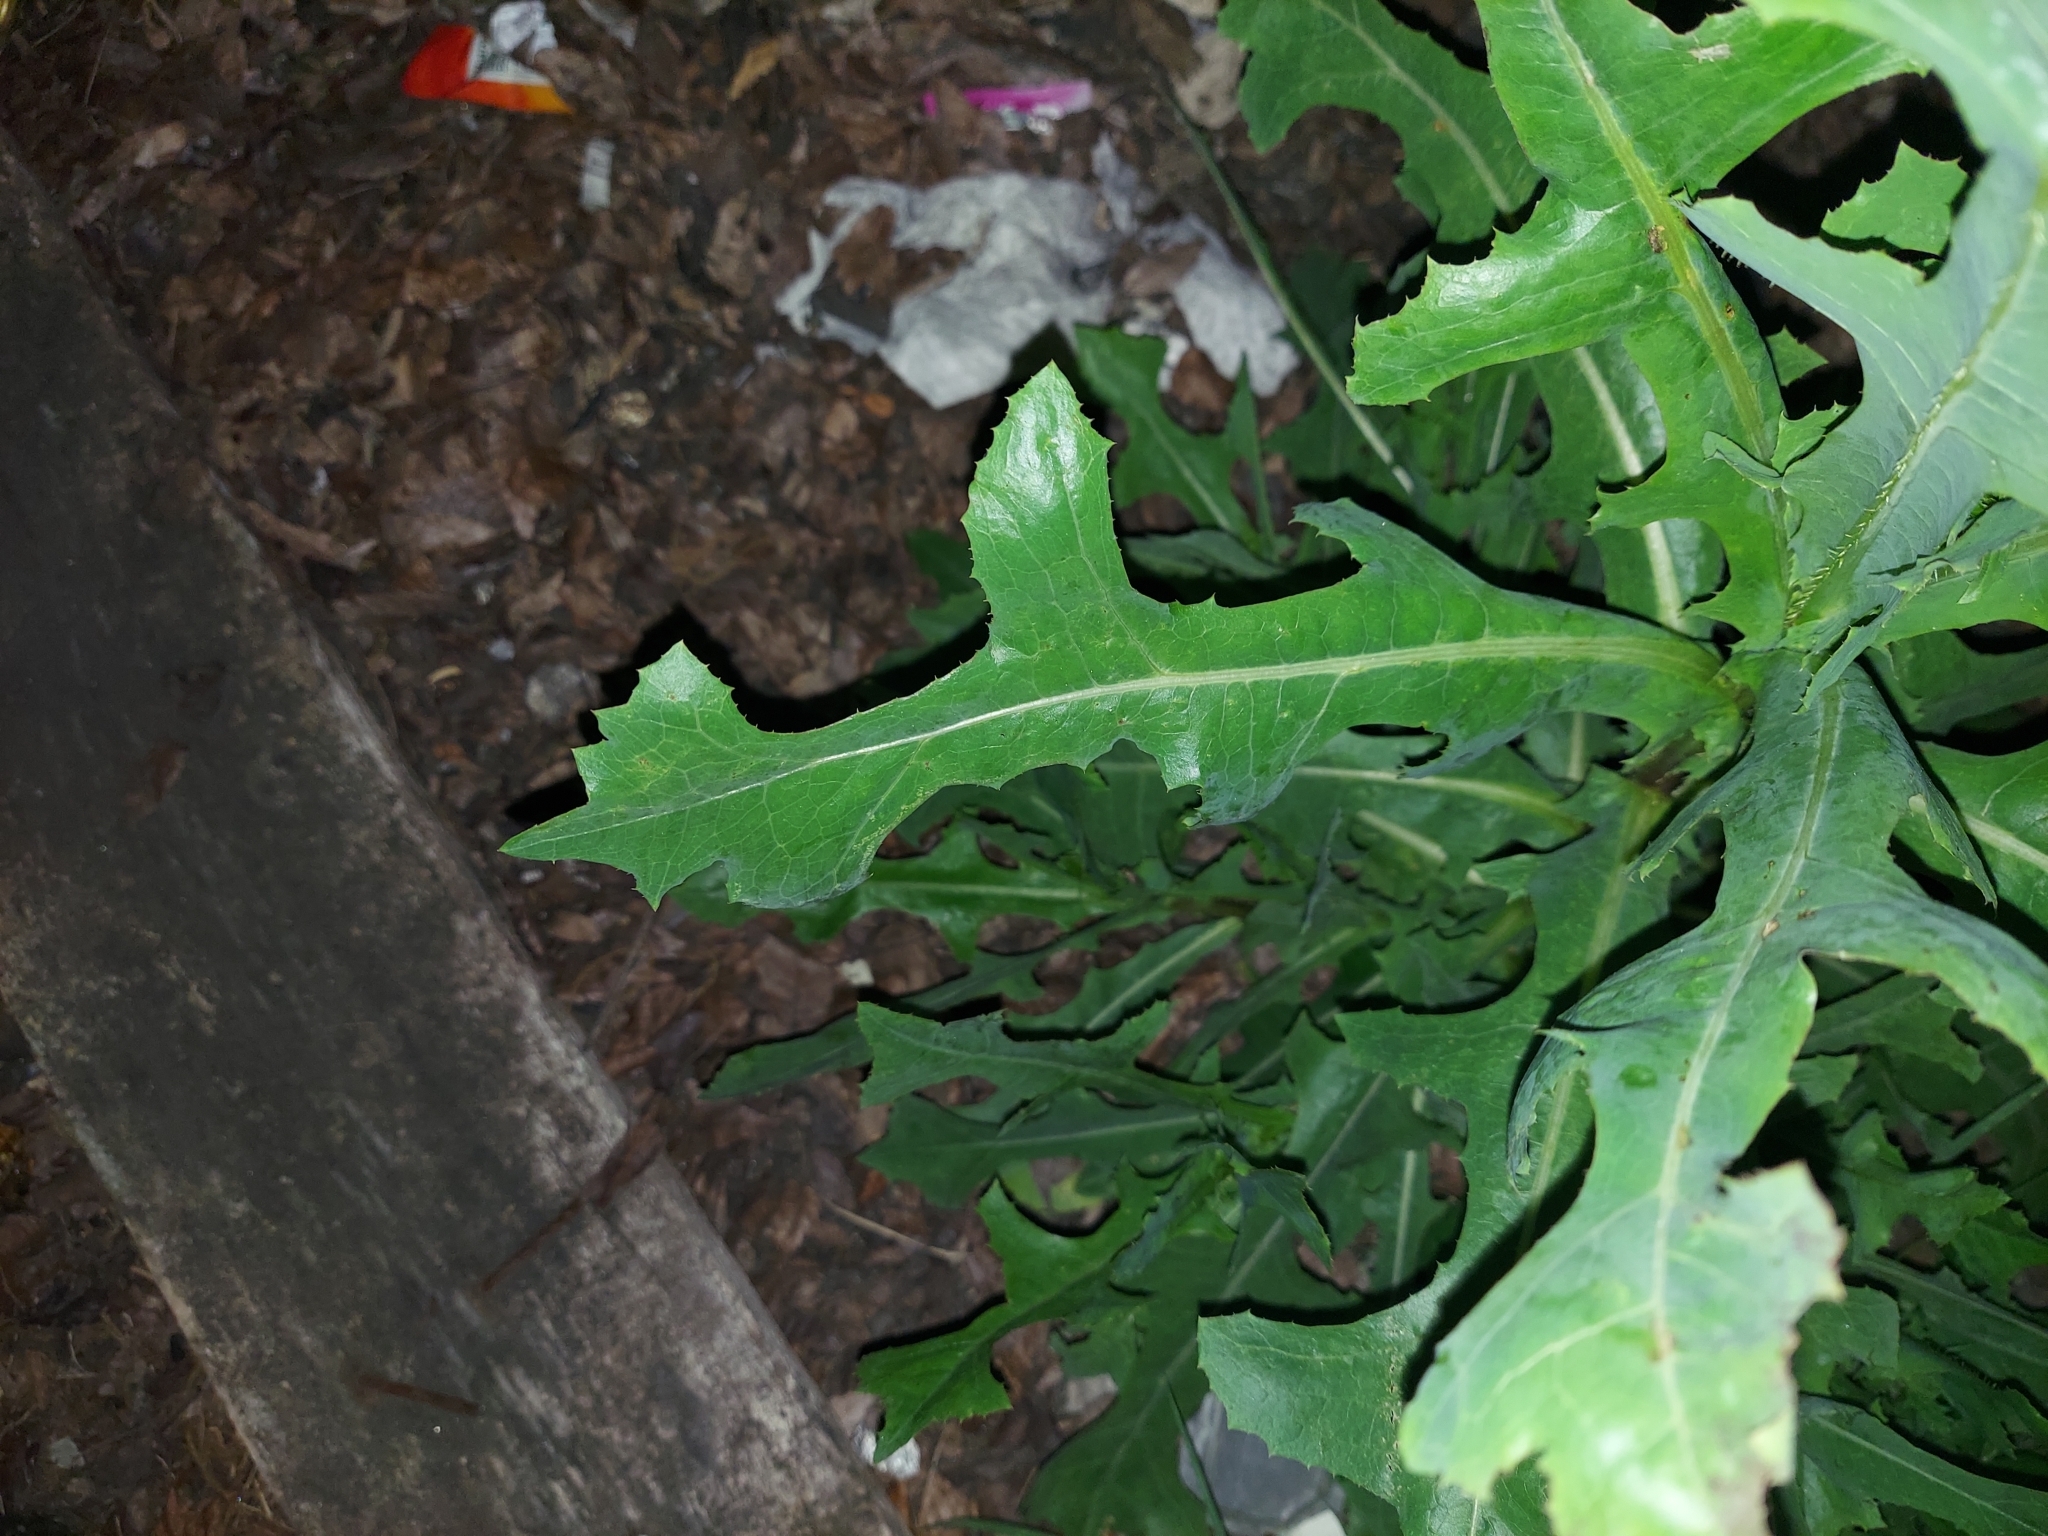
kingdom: Plantae
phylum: Tracheophyta
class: Magnoliopsida
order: Asterales
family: Asteraceae
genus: Lactuca
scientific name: Lactuca serriola
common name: Prickly lettuce
